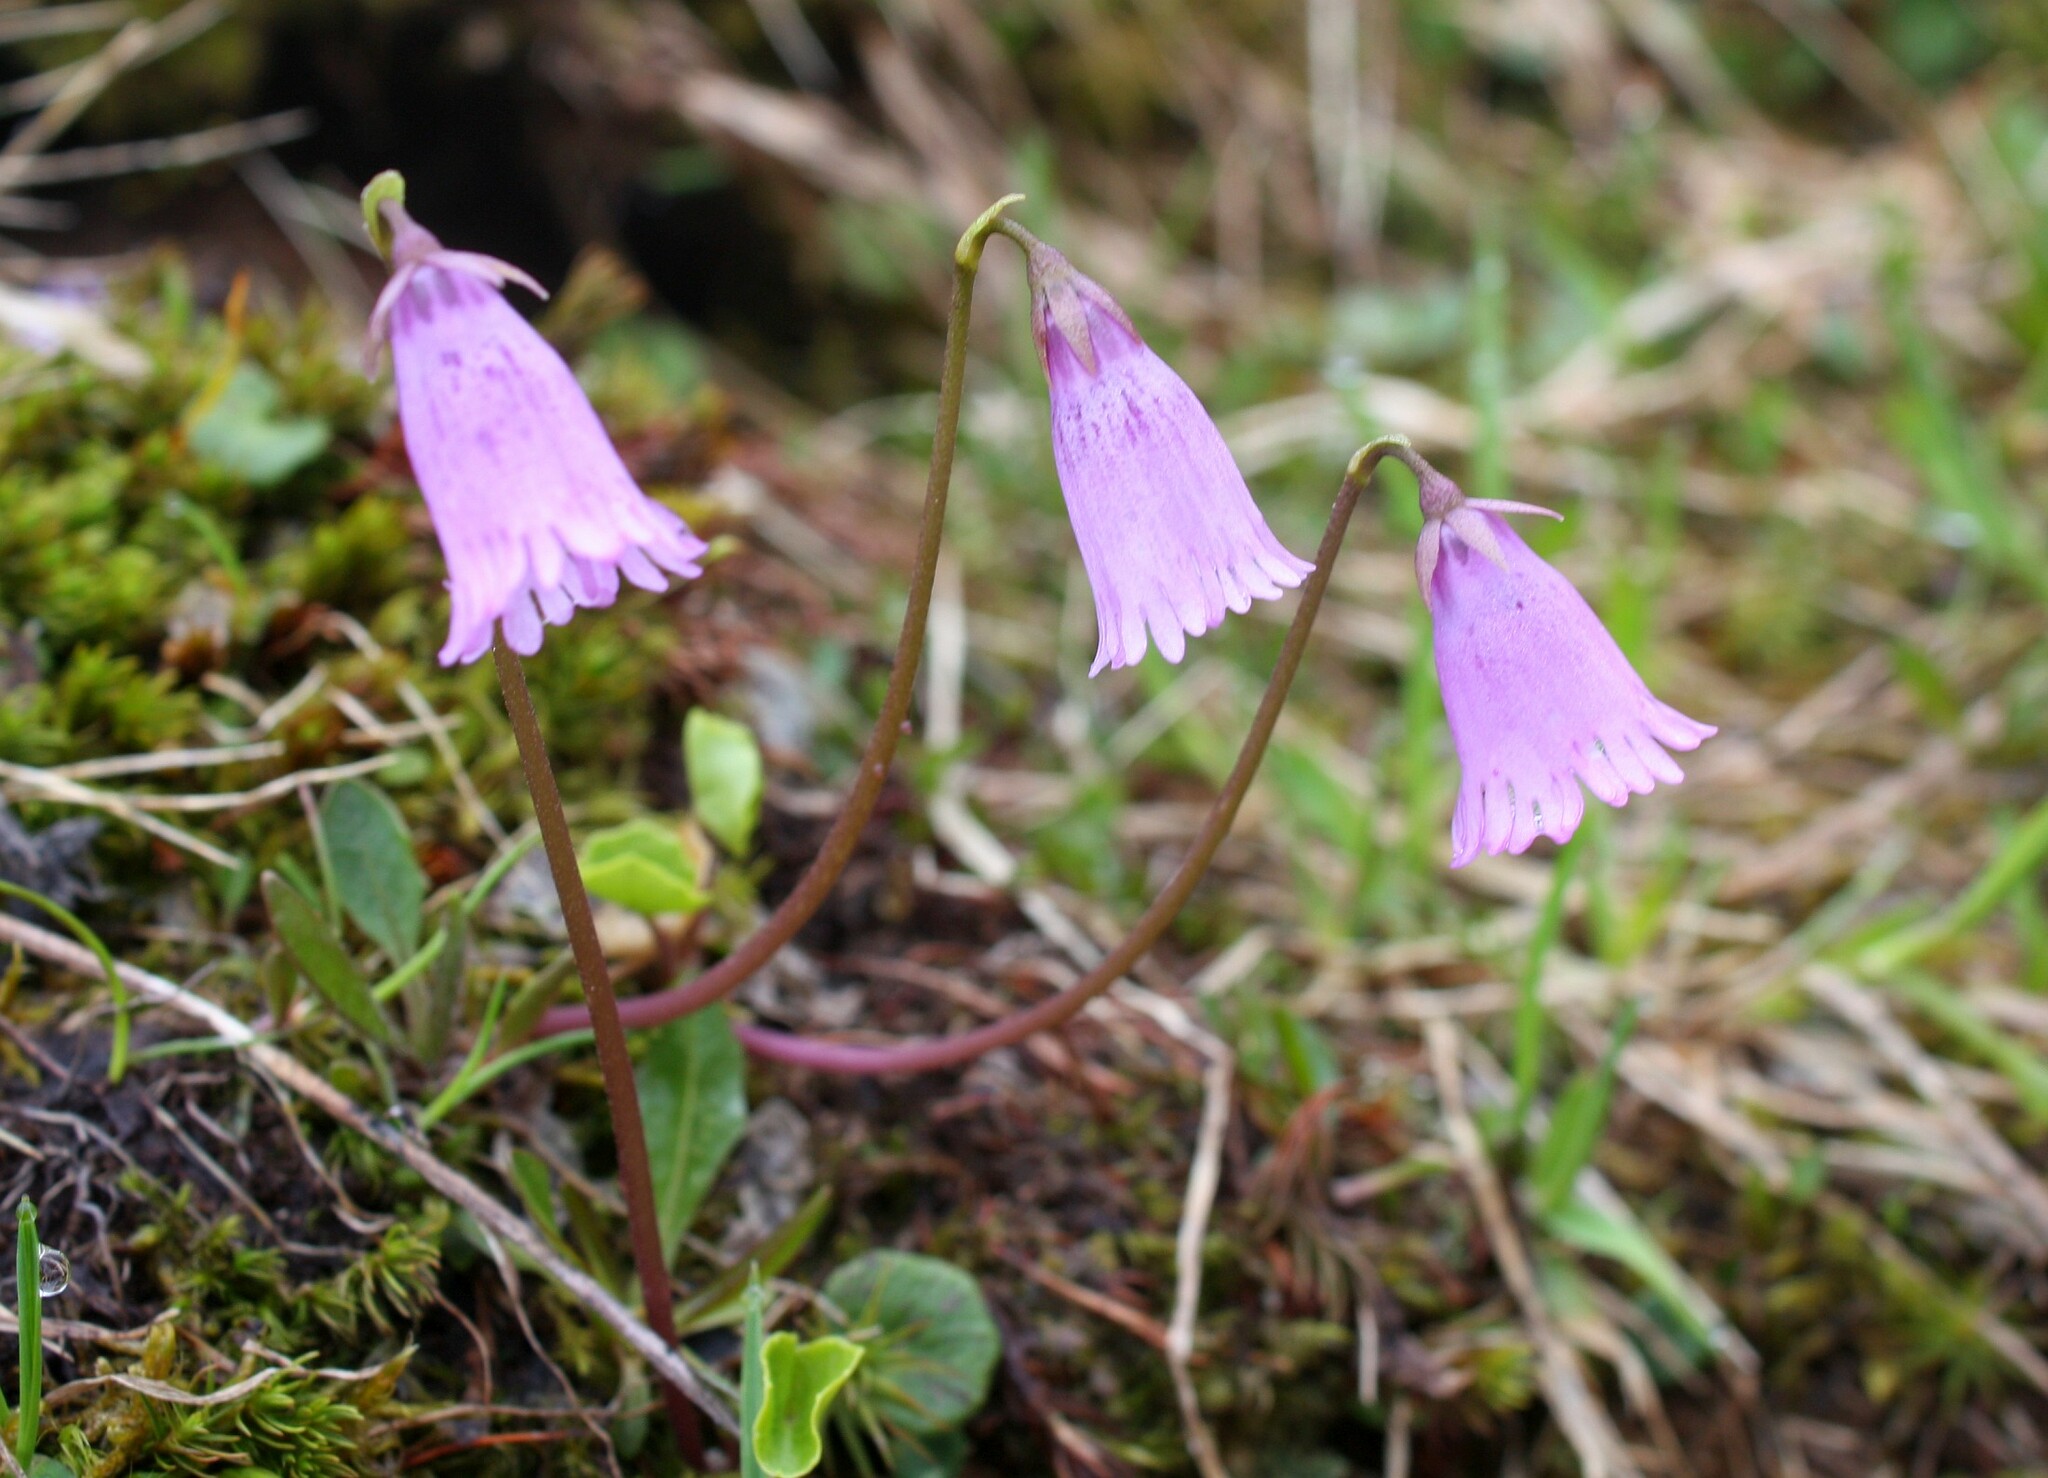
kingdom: Plantae
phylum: Tracheophyta
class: Magnoliopsida
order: Ericales
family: Primulaceae
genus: Soldanella
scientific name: Soldanella pusilla
